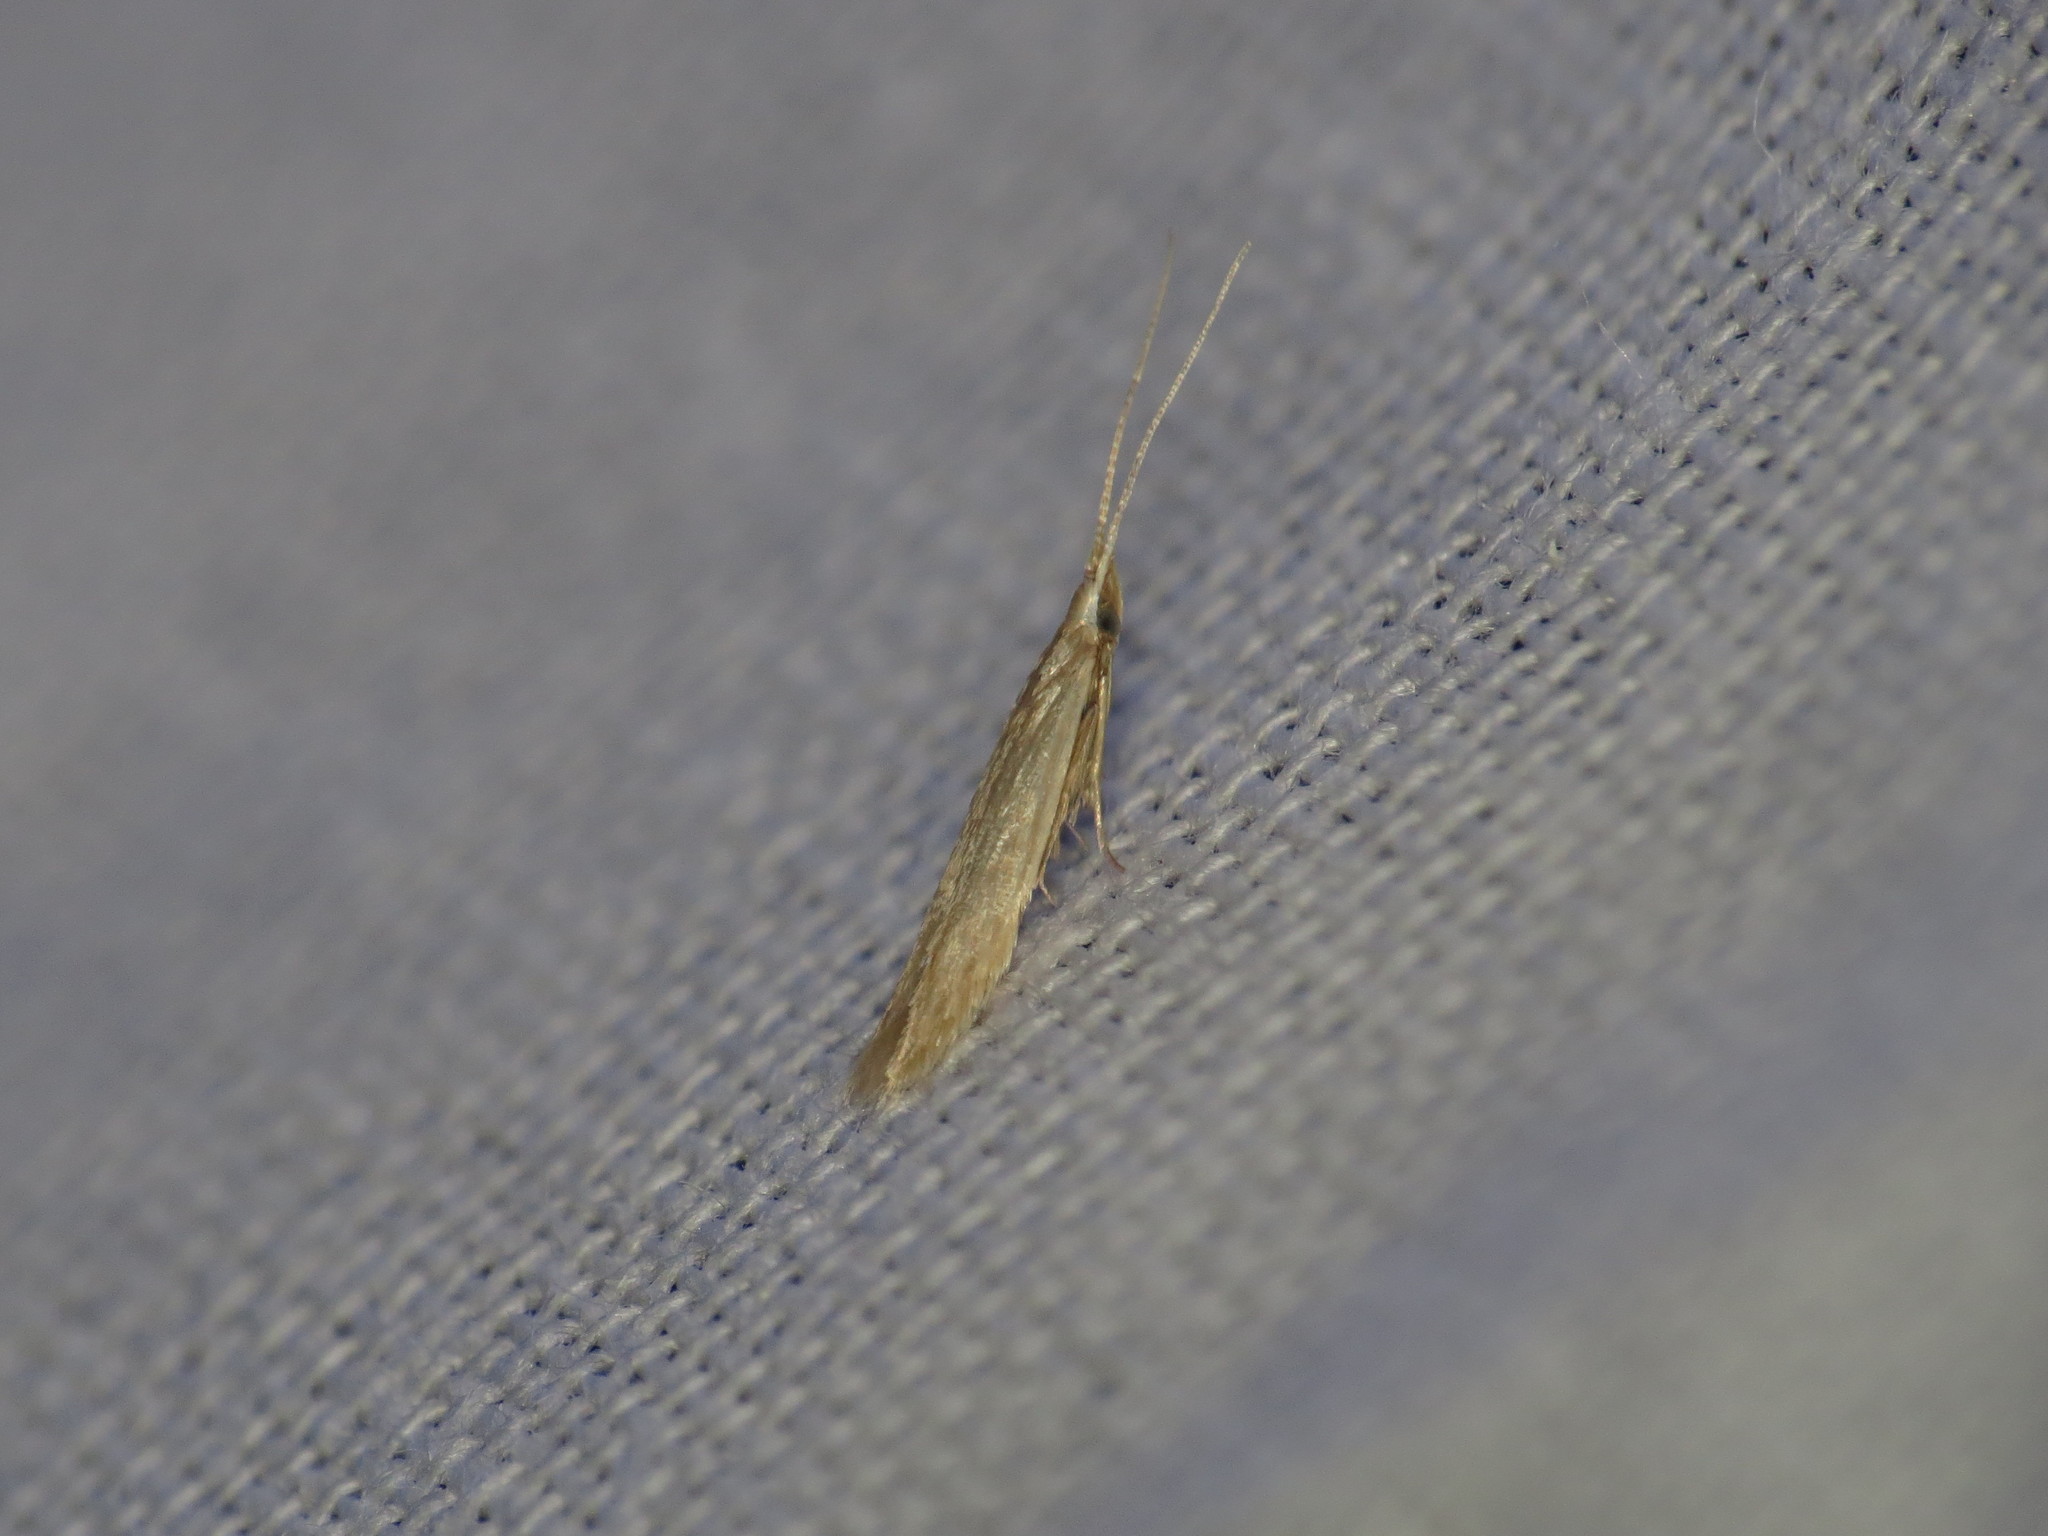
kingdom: Animalia
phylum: Arthropoda
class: Insecta
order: Lepidoptera
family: Coleophoridae
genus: Coleophora
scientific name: Coleophora glaucicolella
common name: Grey rush case-bearer
